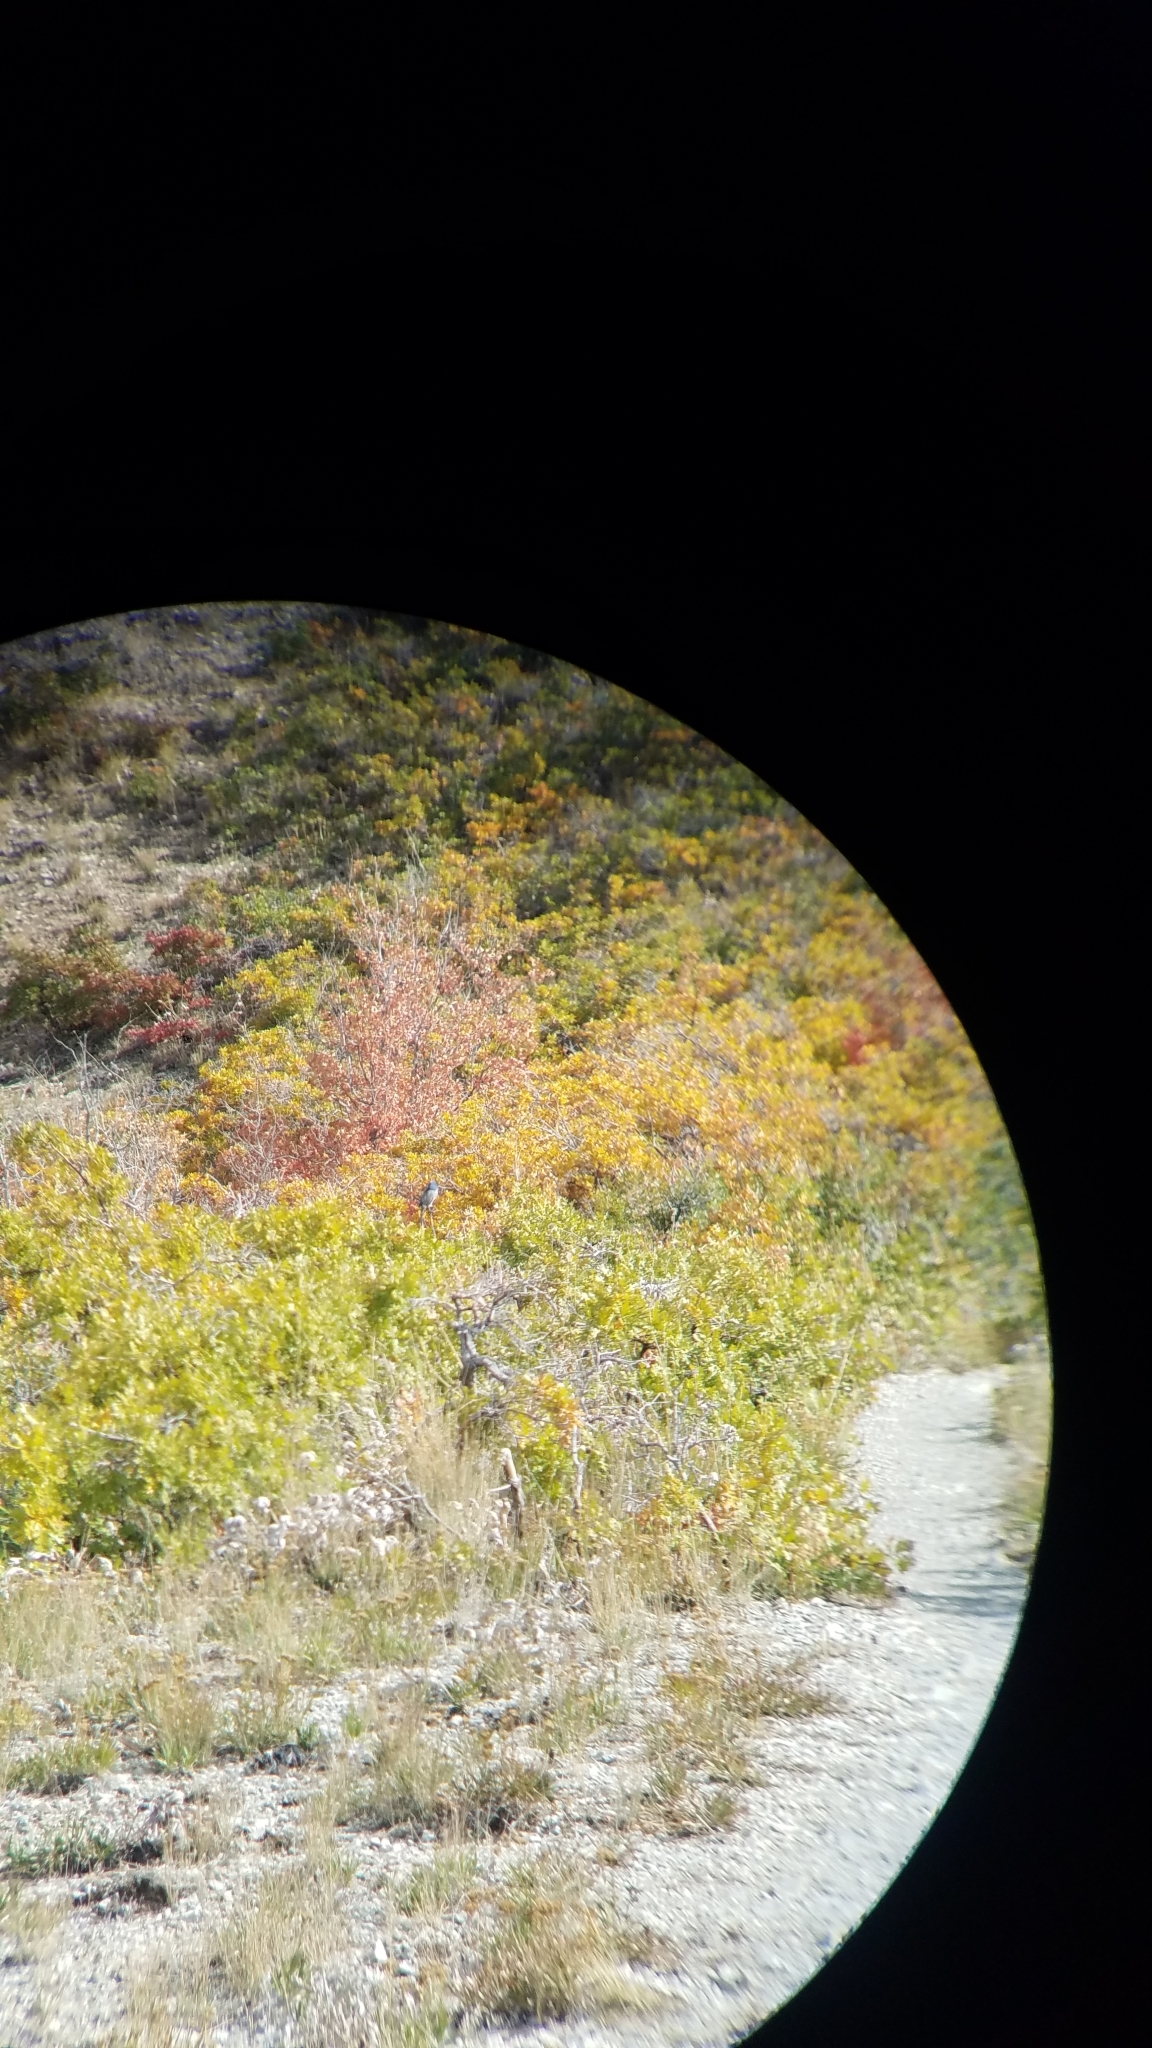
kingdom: Animalia
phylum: Chordata
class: Aves
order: Passeriformes
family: Corvidae
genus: Aphelocoma
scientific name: Aphelocoma woodhouseii
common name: Woodhouse's scrub-jay
